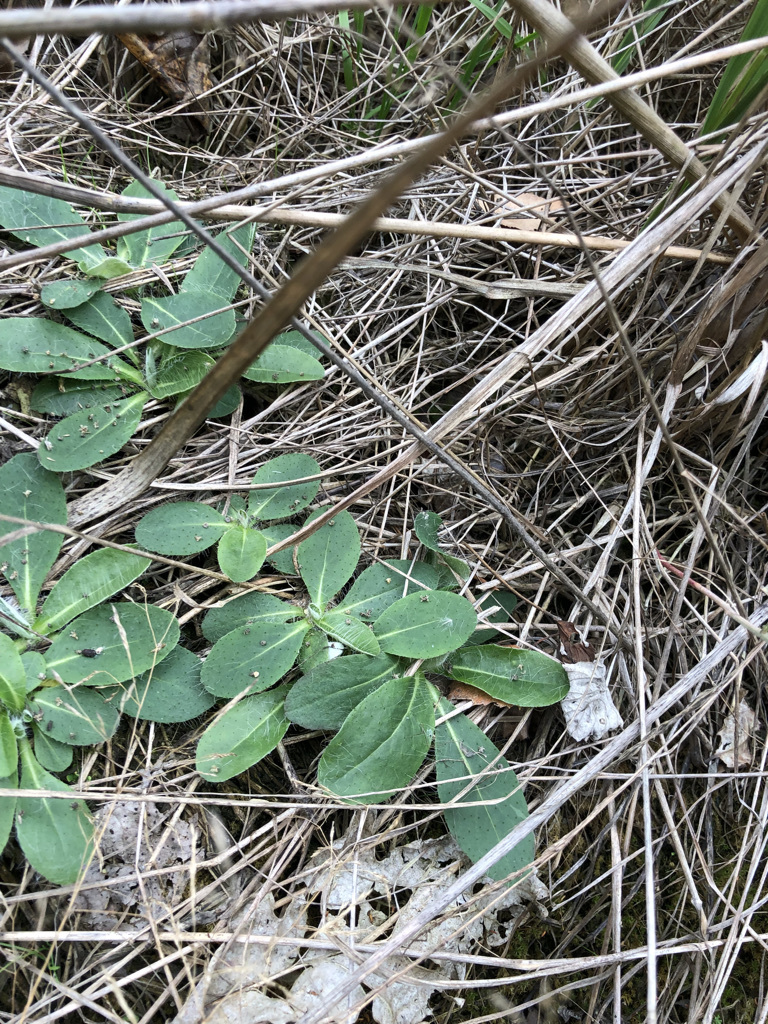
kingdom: Plantae
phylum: Tracheophyta
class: Magnoliopsida
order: Asterales
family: Asteraceae
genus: Pilosella
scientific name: Pilosella officinarum
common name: Mouse-ear hawkweed
